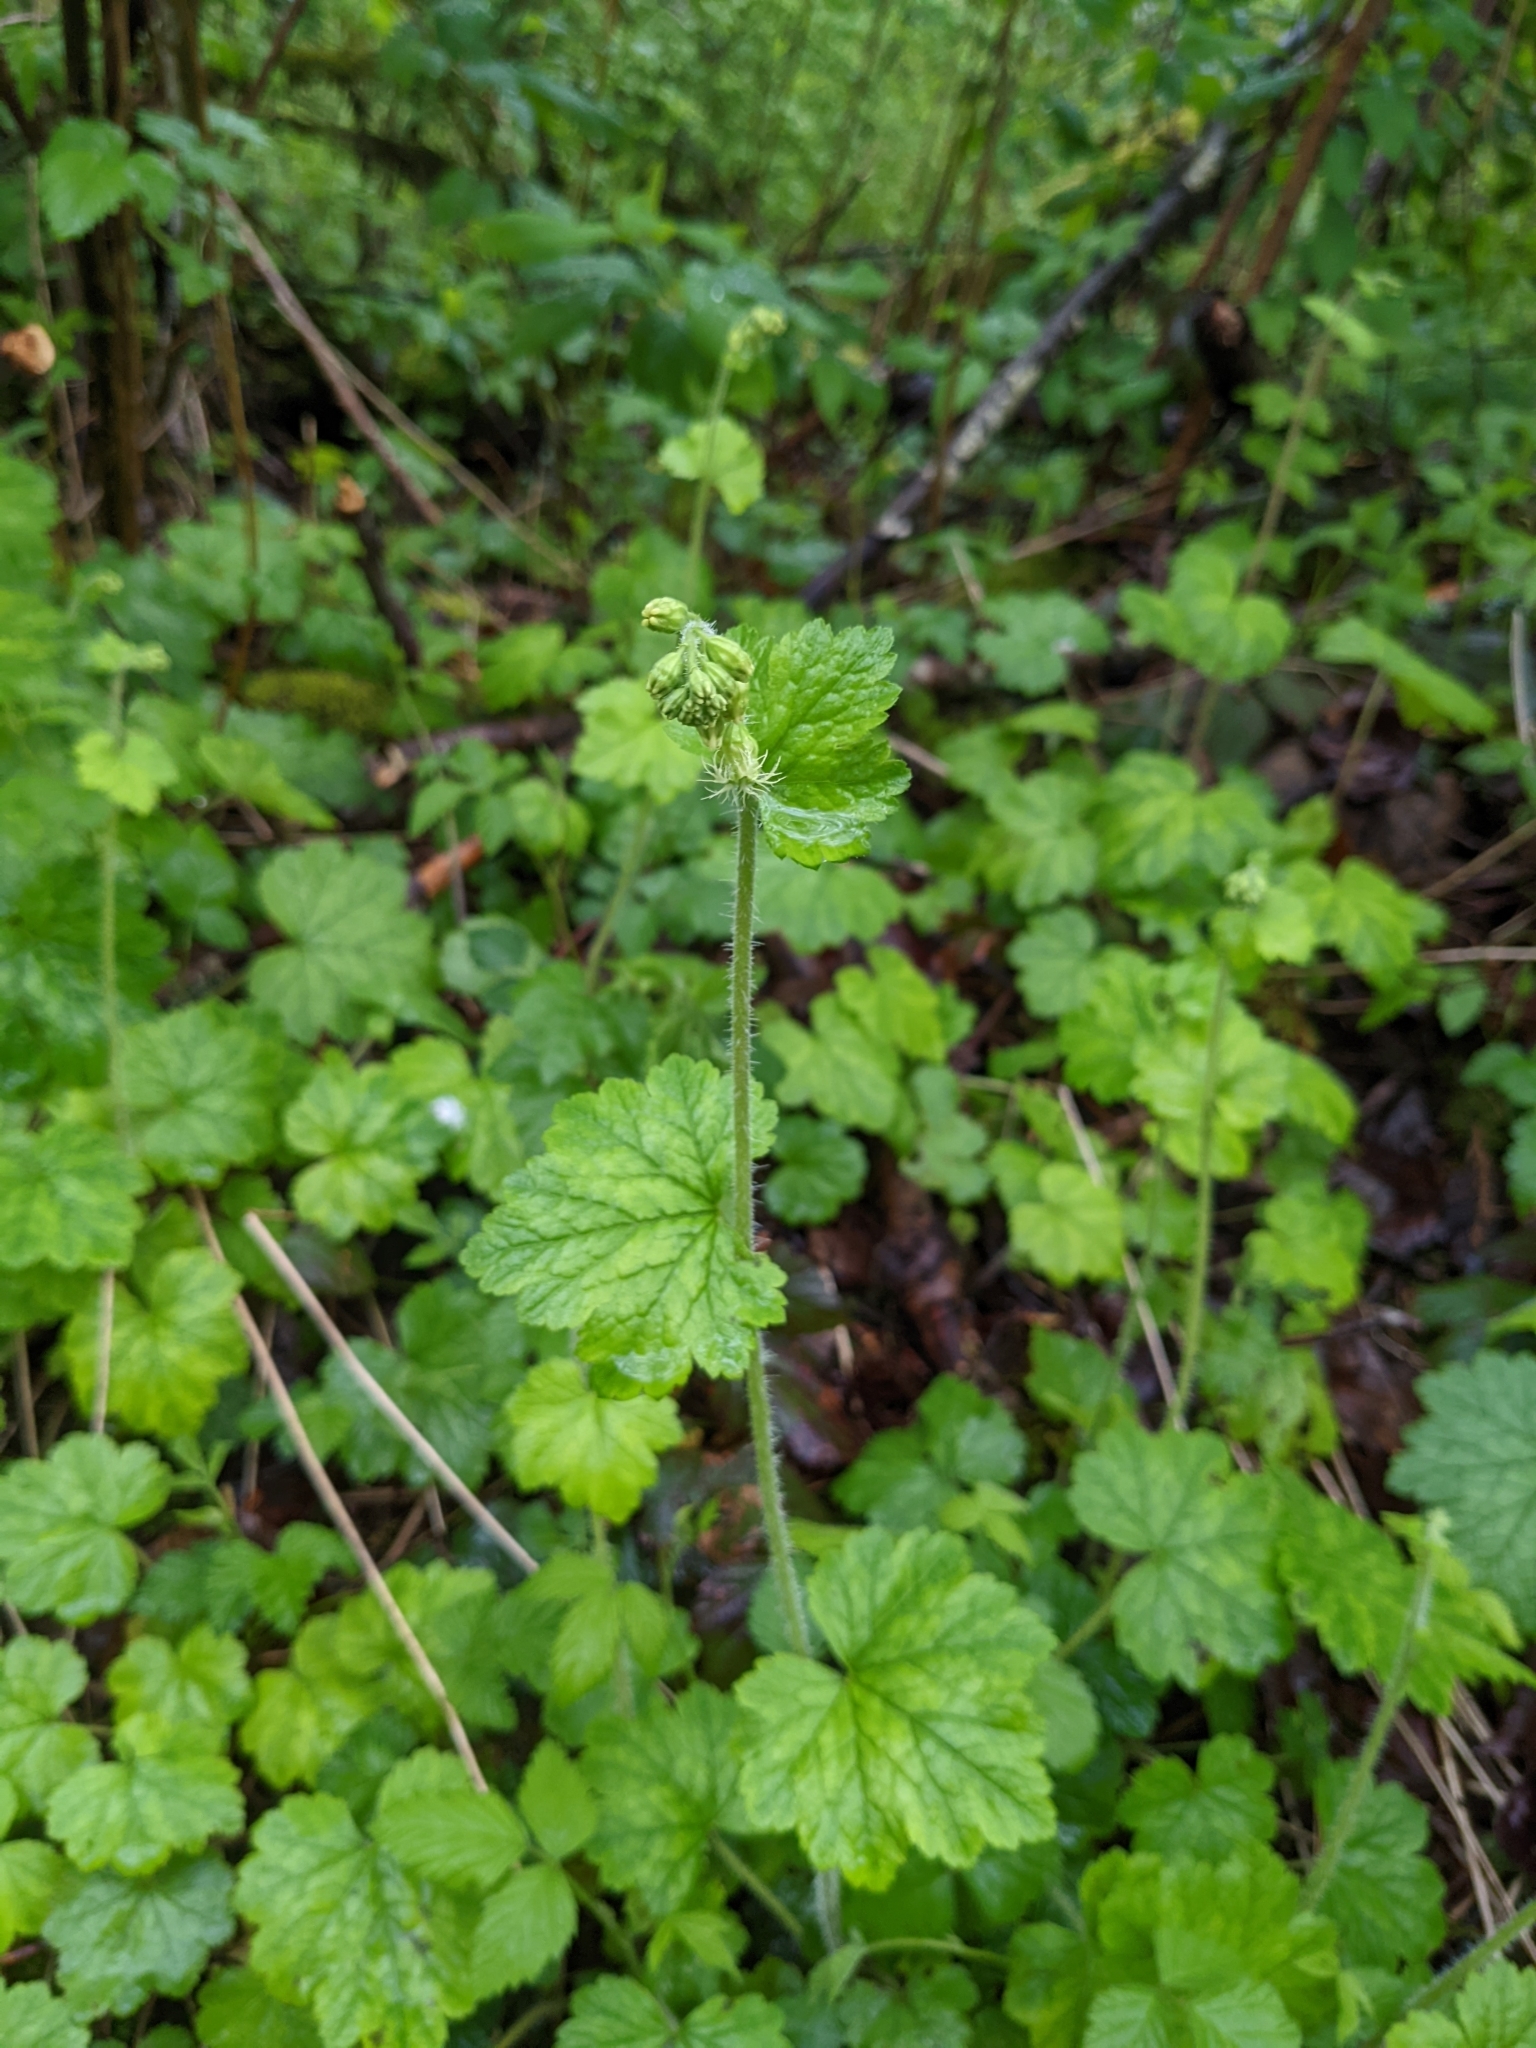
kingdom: Plantae
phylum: Tracheophyta
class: Magnoliopsida
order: Saxifragales
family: Saxifragaceae
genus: Tellima
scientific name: Tellima grandiflora
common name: Fringecups
